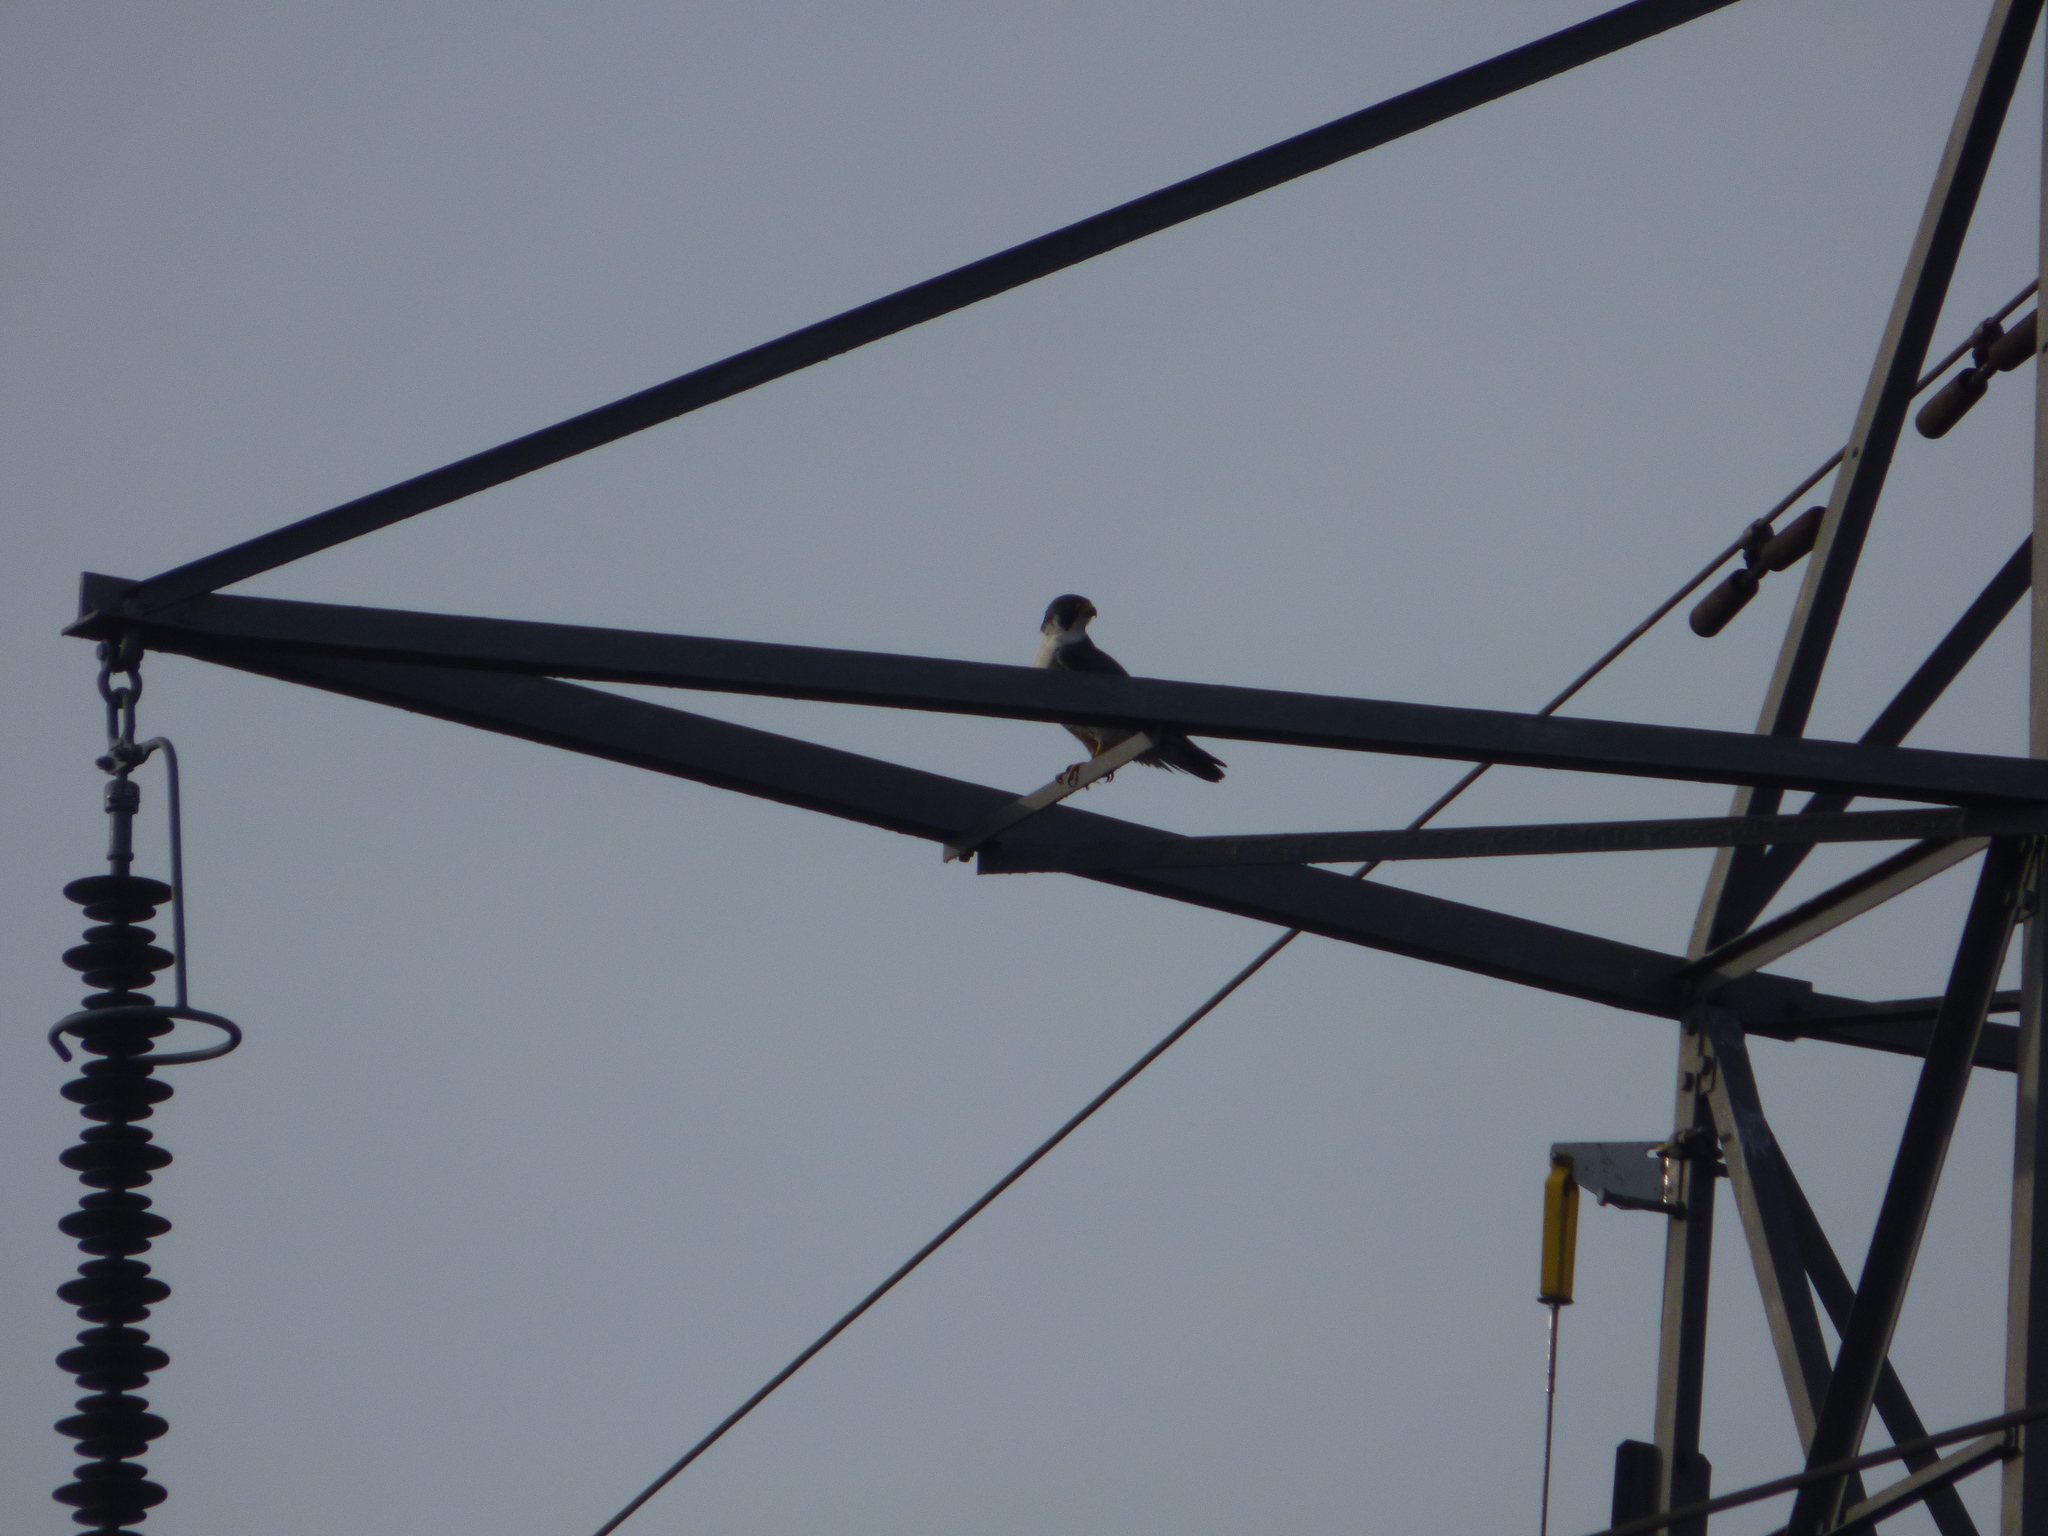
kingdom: Animalia
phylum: Chordata
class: Aves
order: Falconiformes
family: Falconidae
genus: Falco
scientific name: Falco peregrinus
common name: Peregrine falcon
